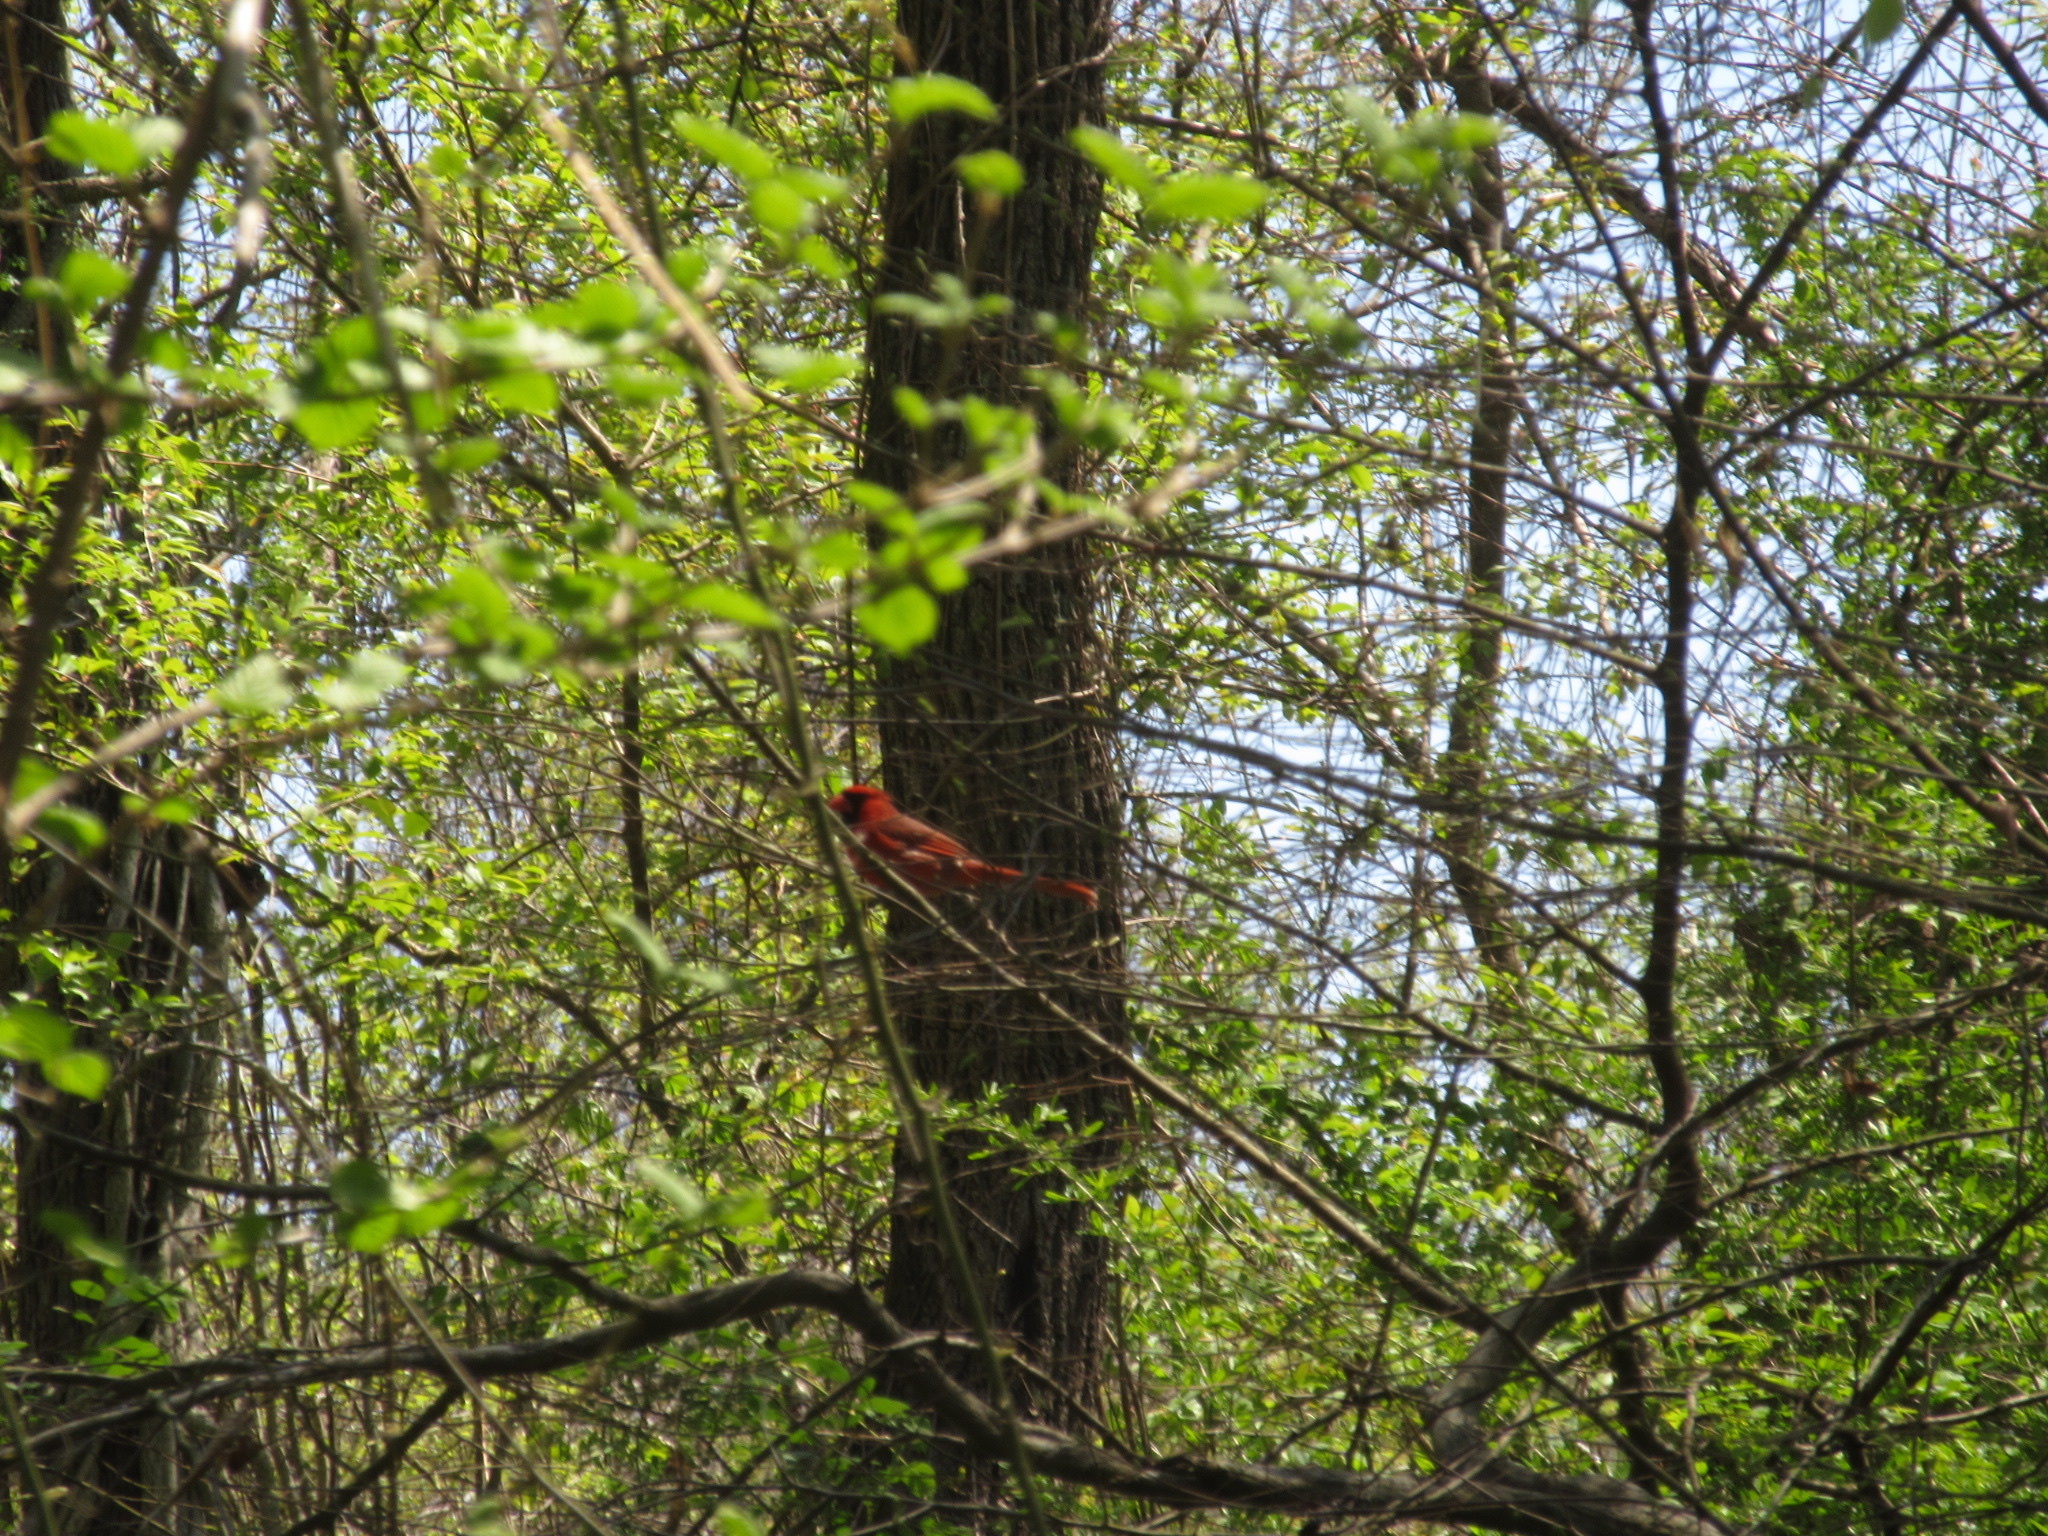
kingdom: Animalia
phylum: Chordata
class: Aves
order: Passeriformes
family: Cardinalidae
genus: Cardinalis
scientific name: Cardinalis cardinalis
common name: Northern cardinal
